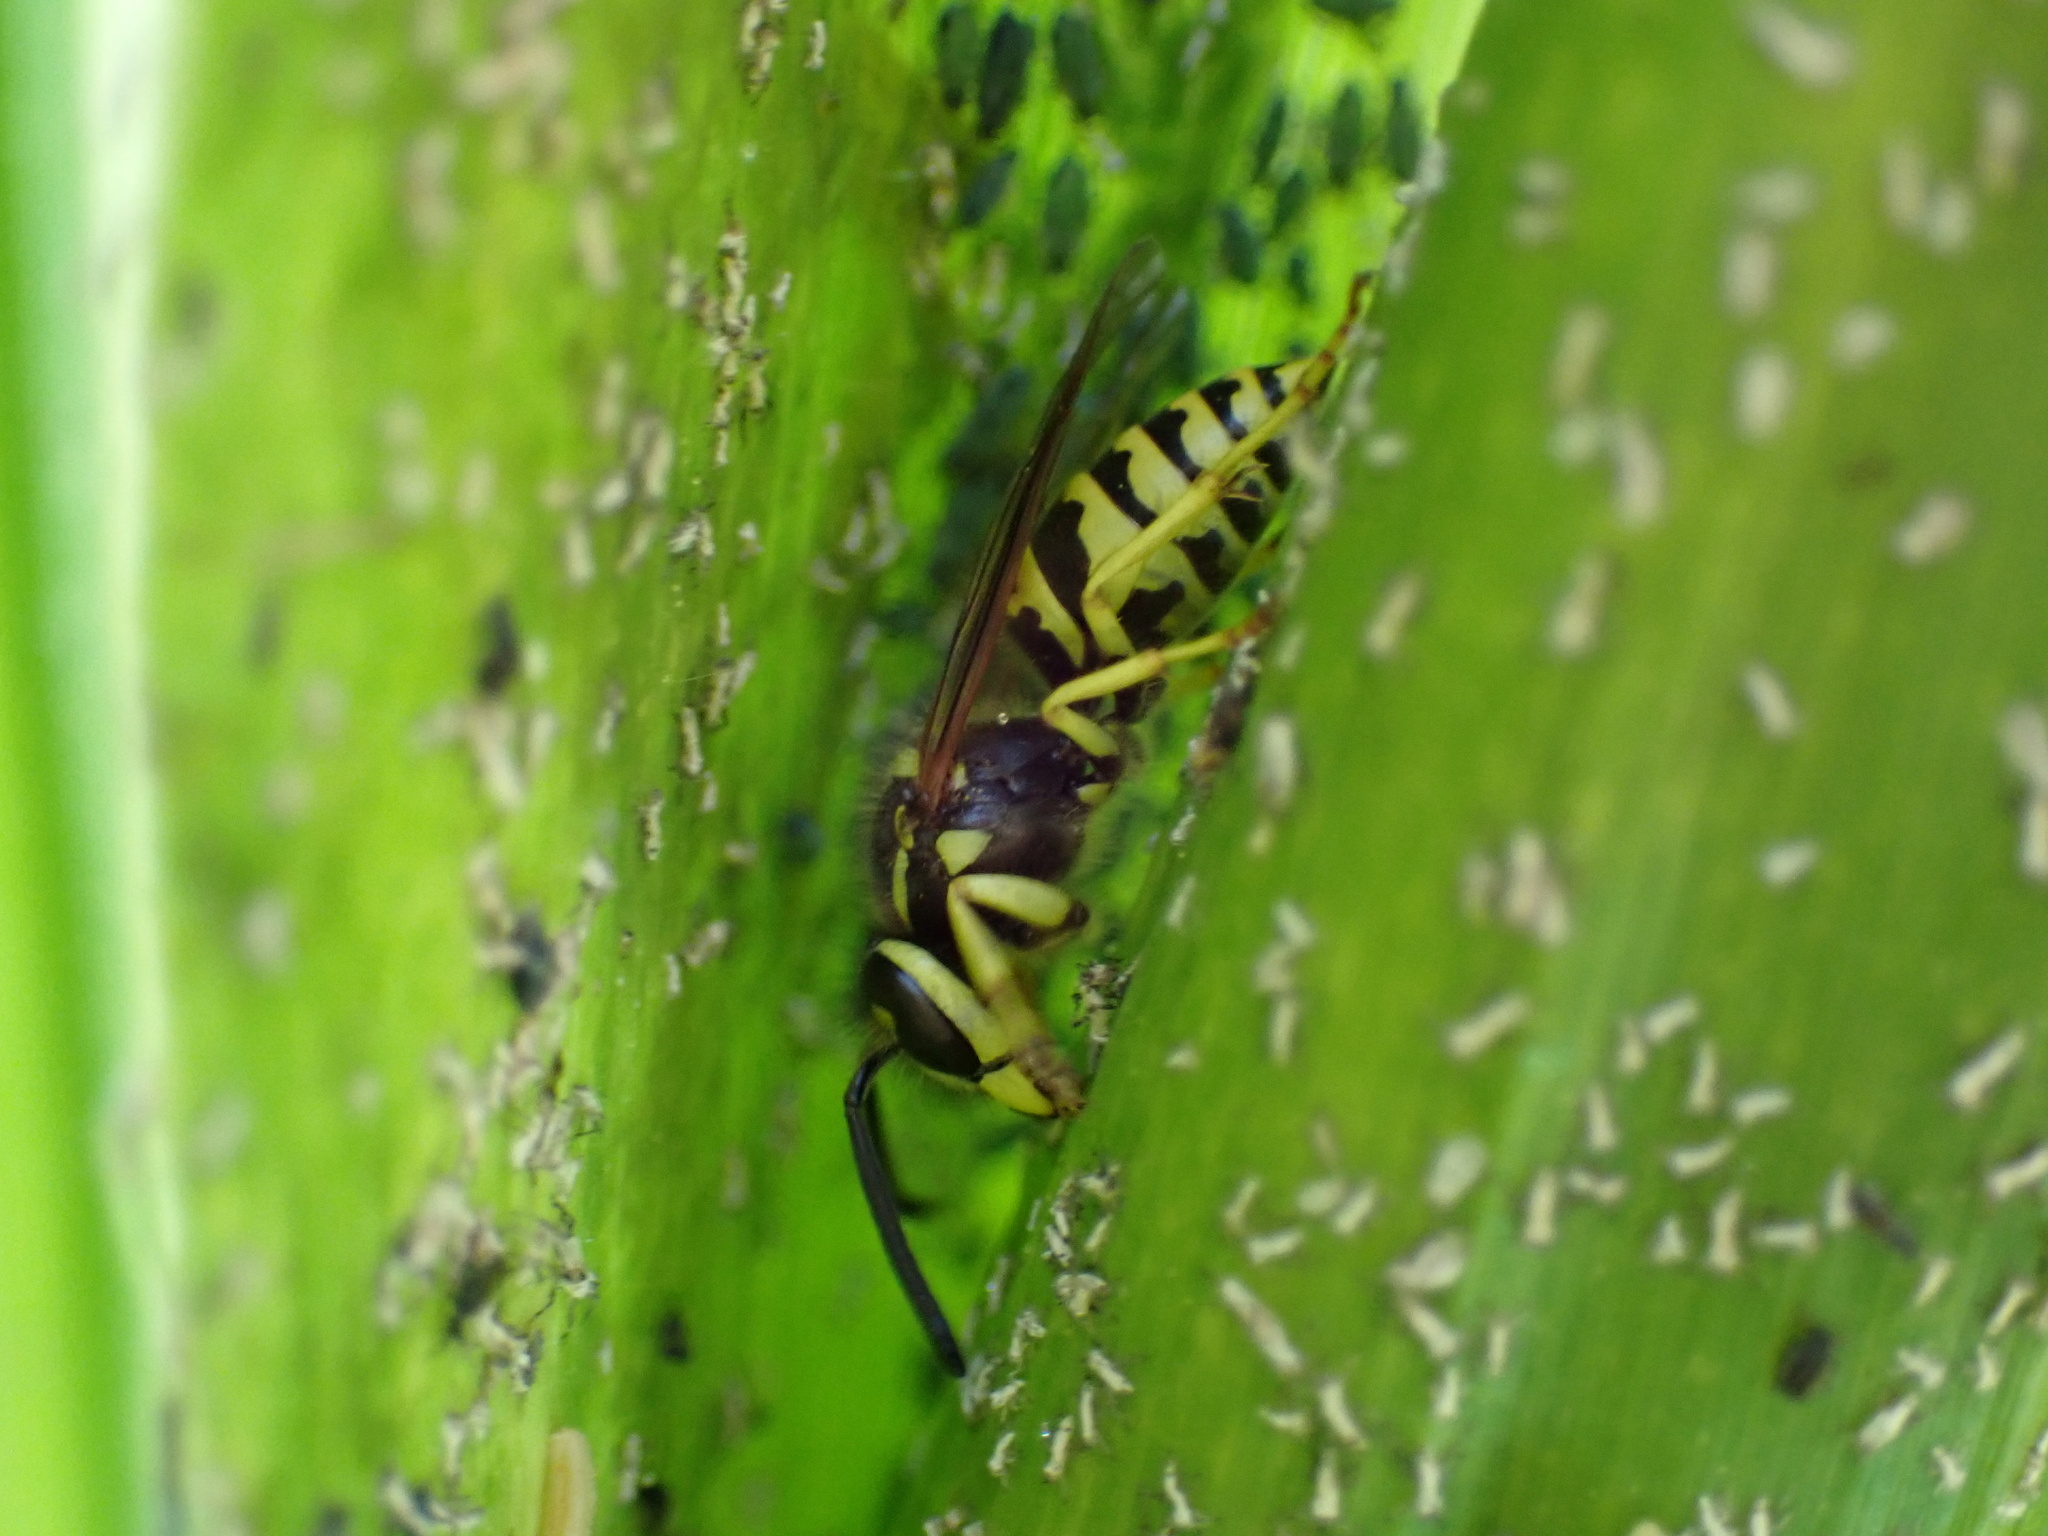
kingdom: Animalia
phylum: Arthropoda
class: Insecta
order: Hymenoptera
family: Vespidae
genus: Vespula
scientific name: Vespula maculifrons
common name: Eastern yellowjacket
